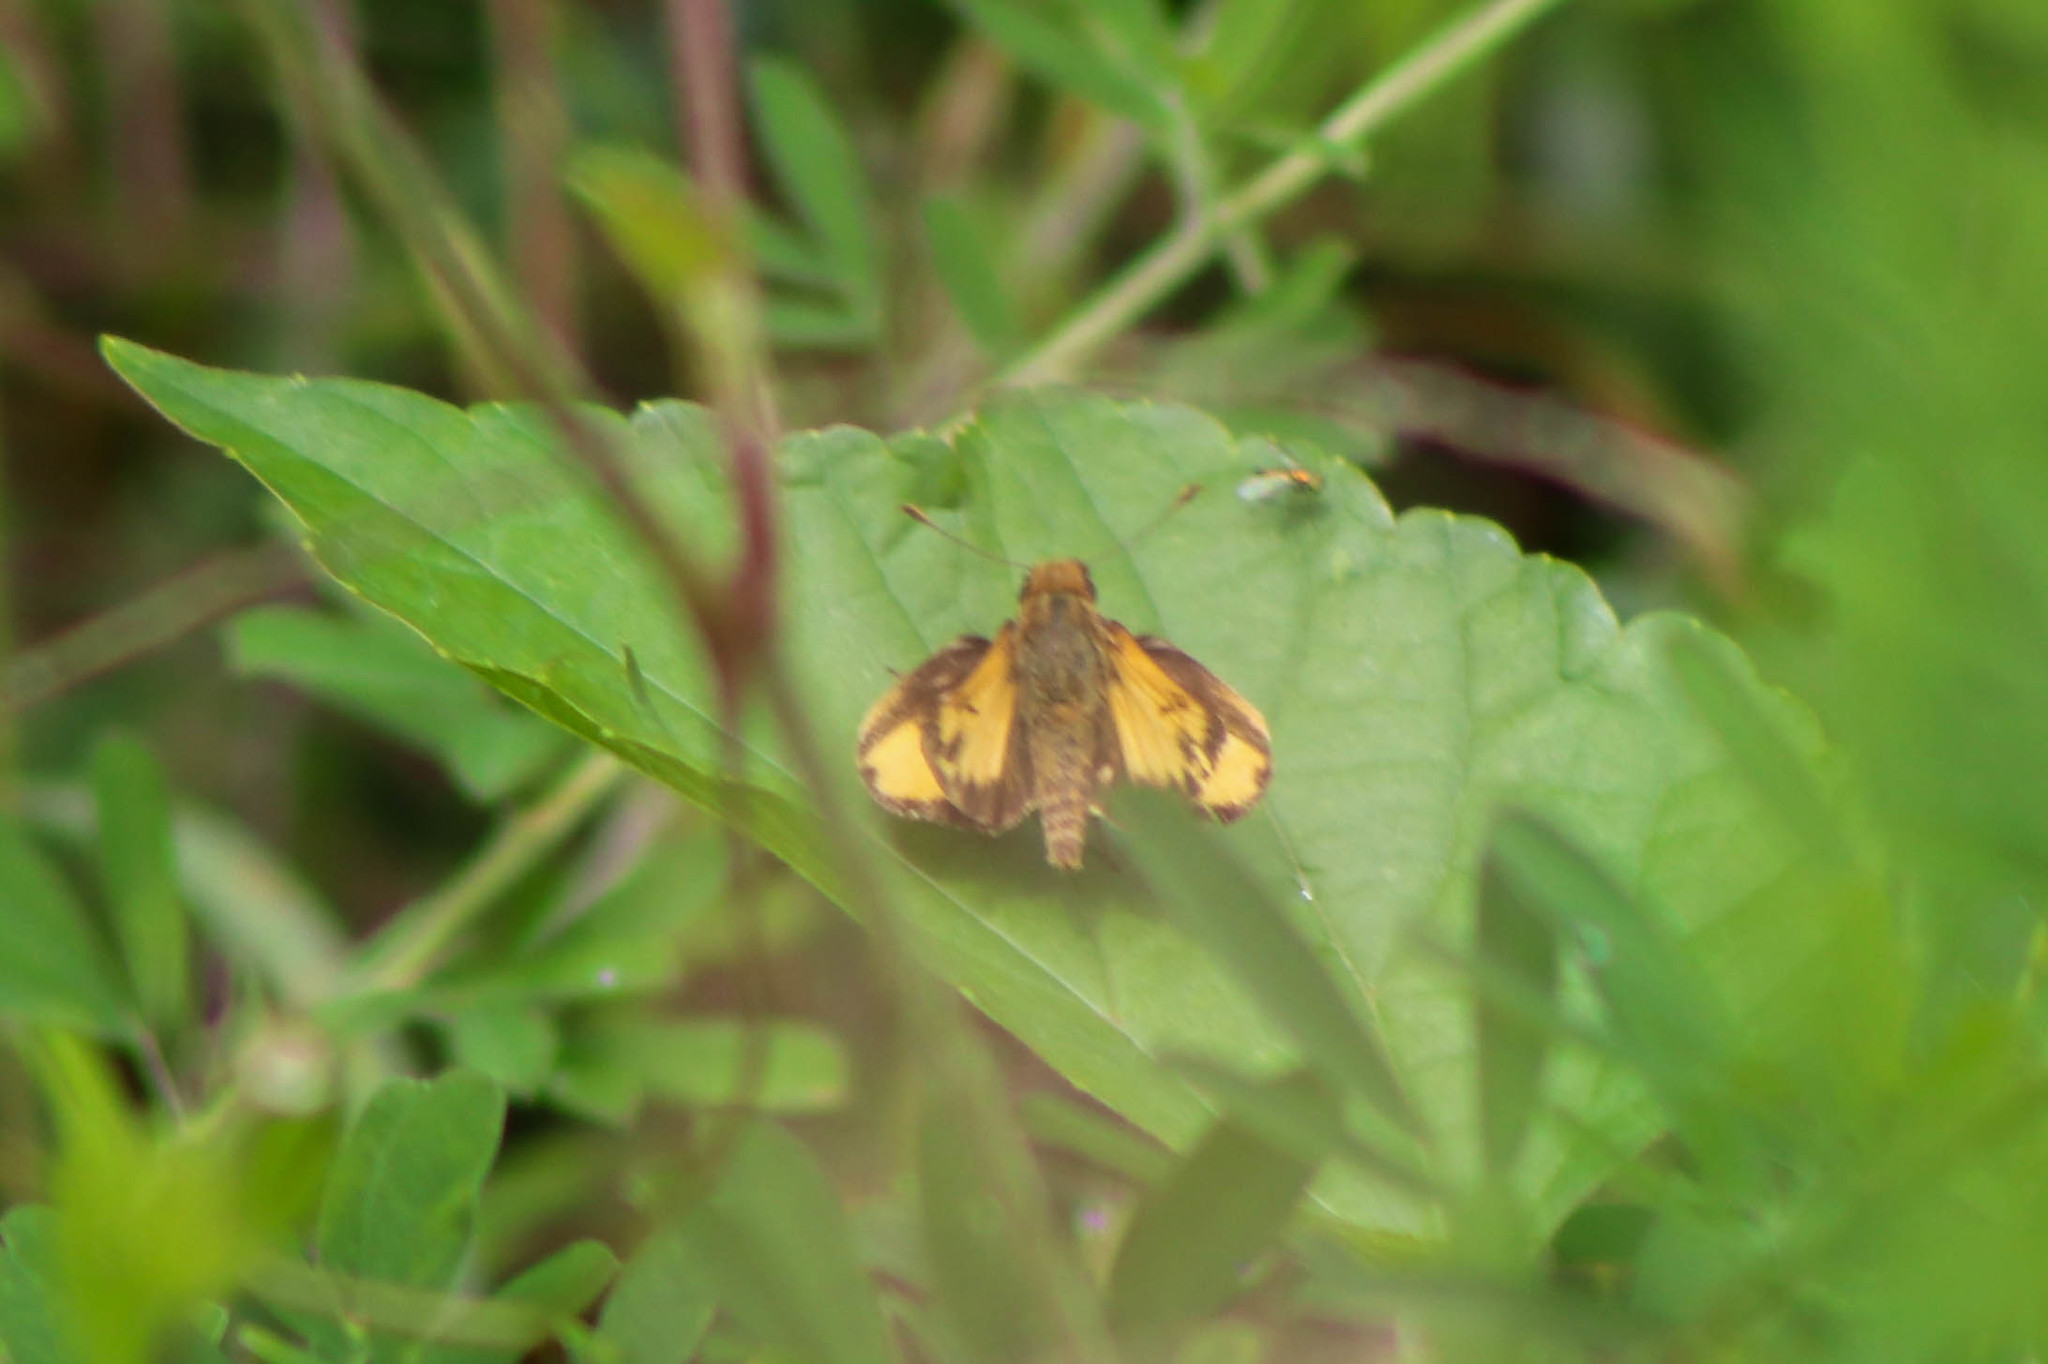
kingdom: Animalia
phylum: Arthropoda
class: Insecta
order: Lepidoptera
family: Hesperiidae
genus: Lon
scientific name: Lon zabulon
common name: Zabulon skipper
